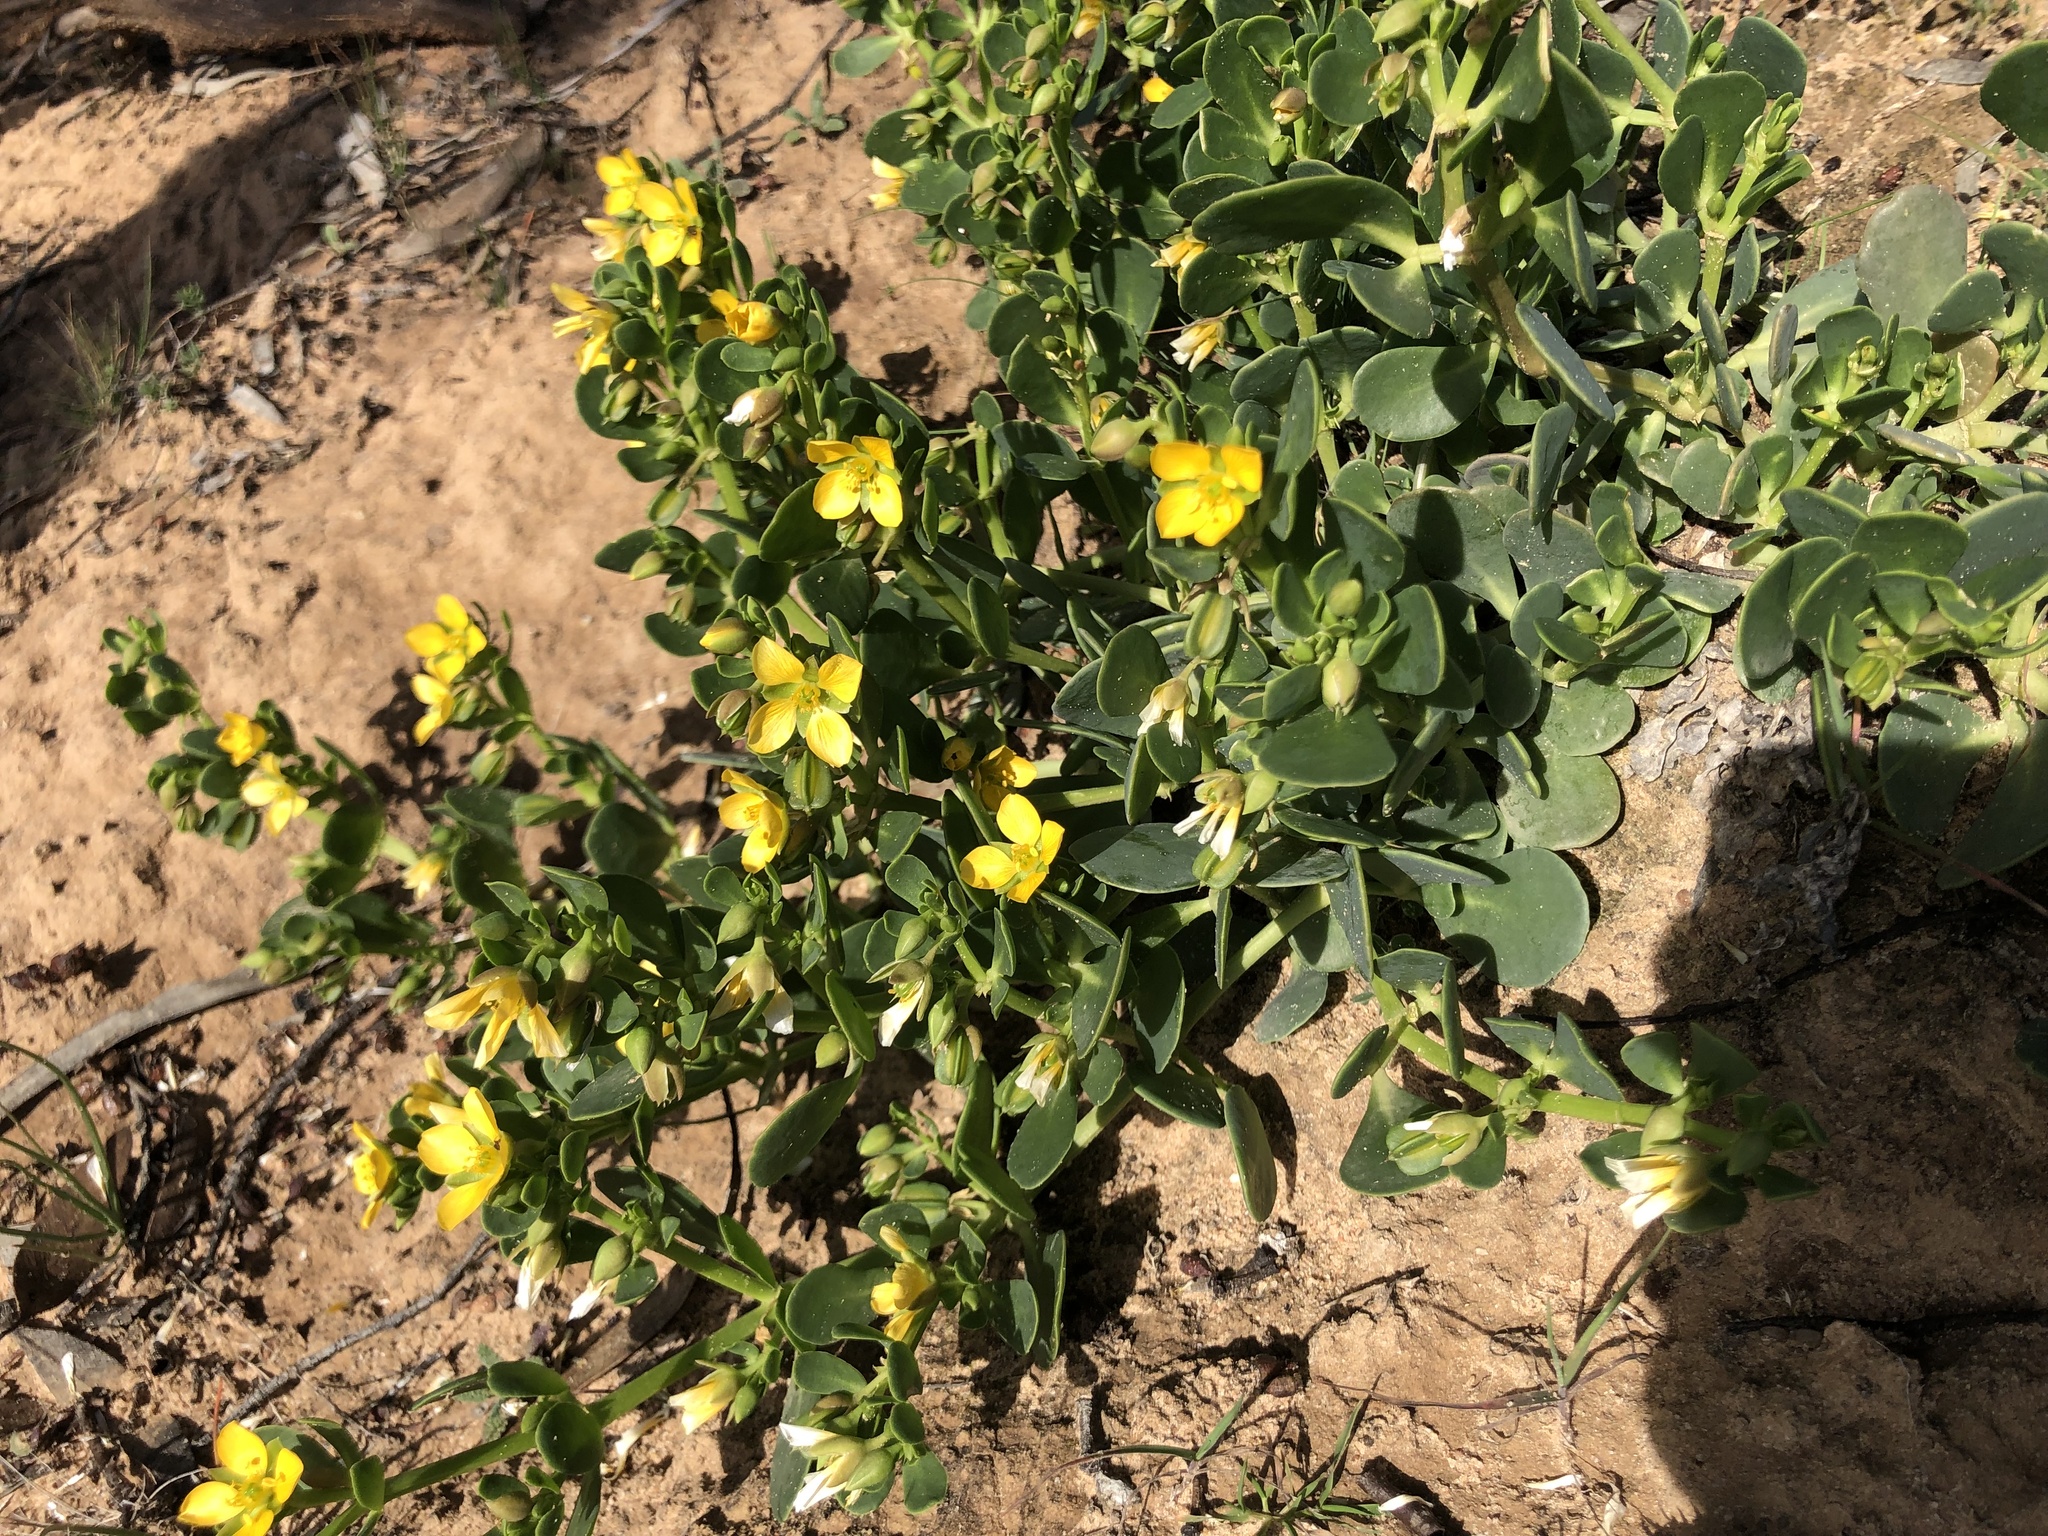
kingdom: Plantae
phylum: Tracheophyta
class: Magnoliopsida
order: Zygophyllales
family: Zygophyllaceae
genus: Roepera
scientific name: Roepera glauca
